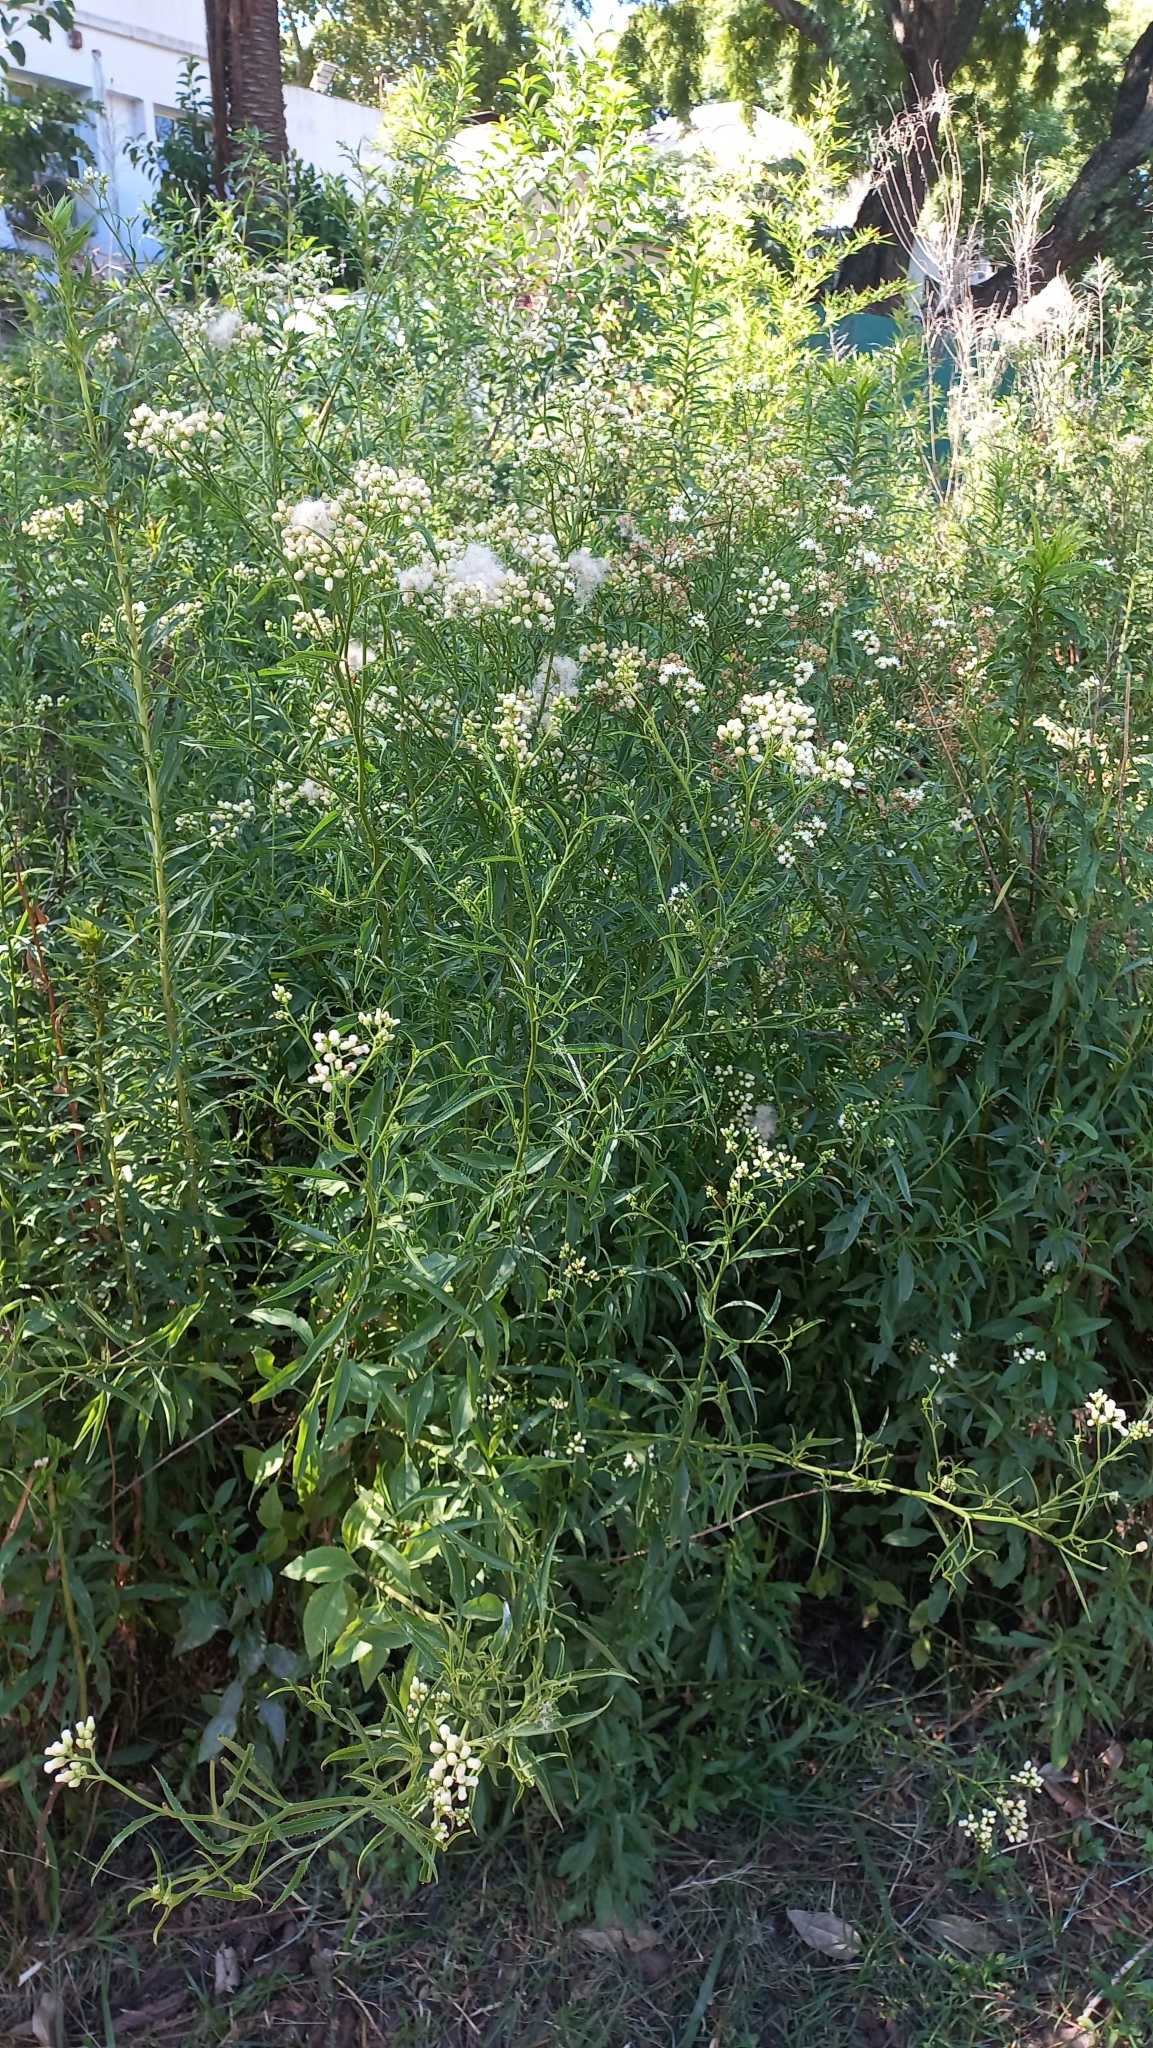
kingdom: Plantae
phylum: Tracheophyta
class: Magnoliopsida
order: Asterales
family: Asteraceae
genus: Baccharis
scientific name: Baccharis glutinosa
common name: Saltmarsh baccharis
